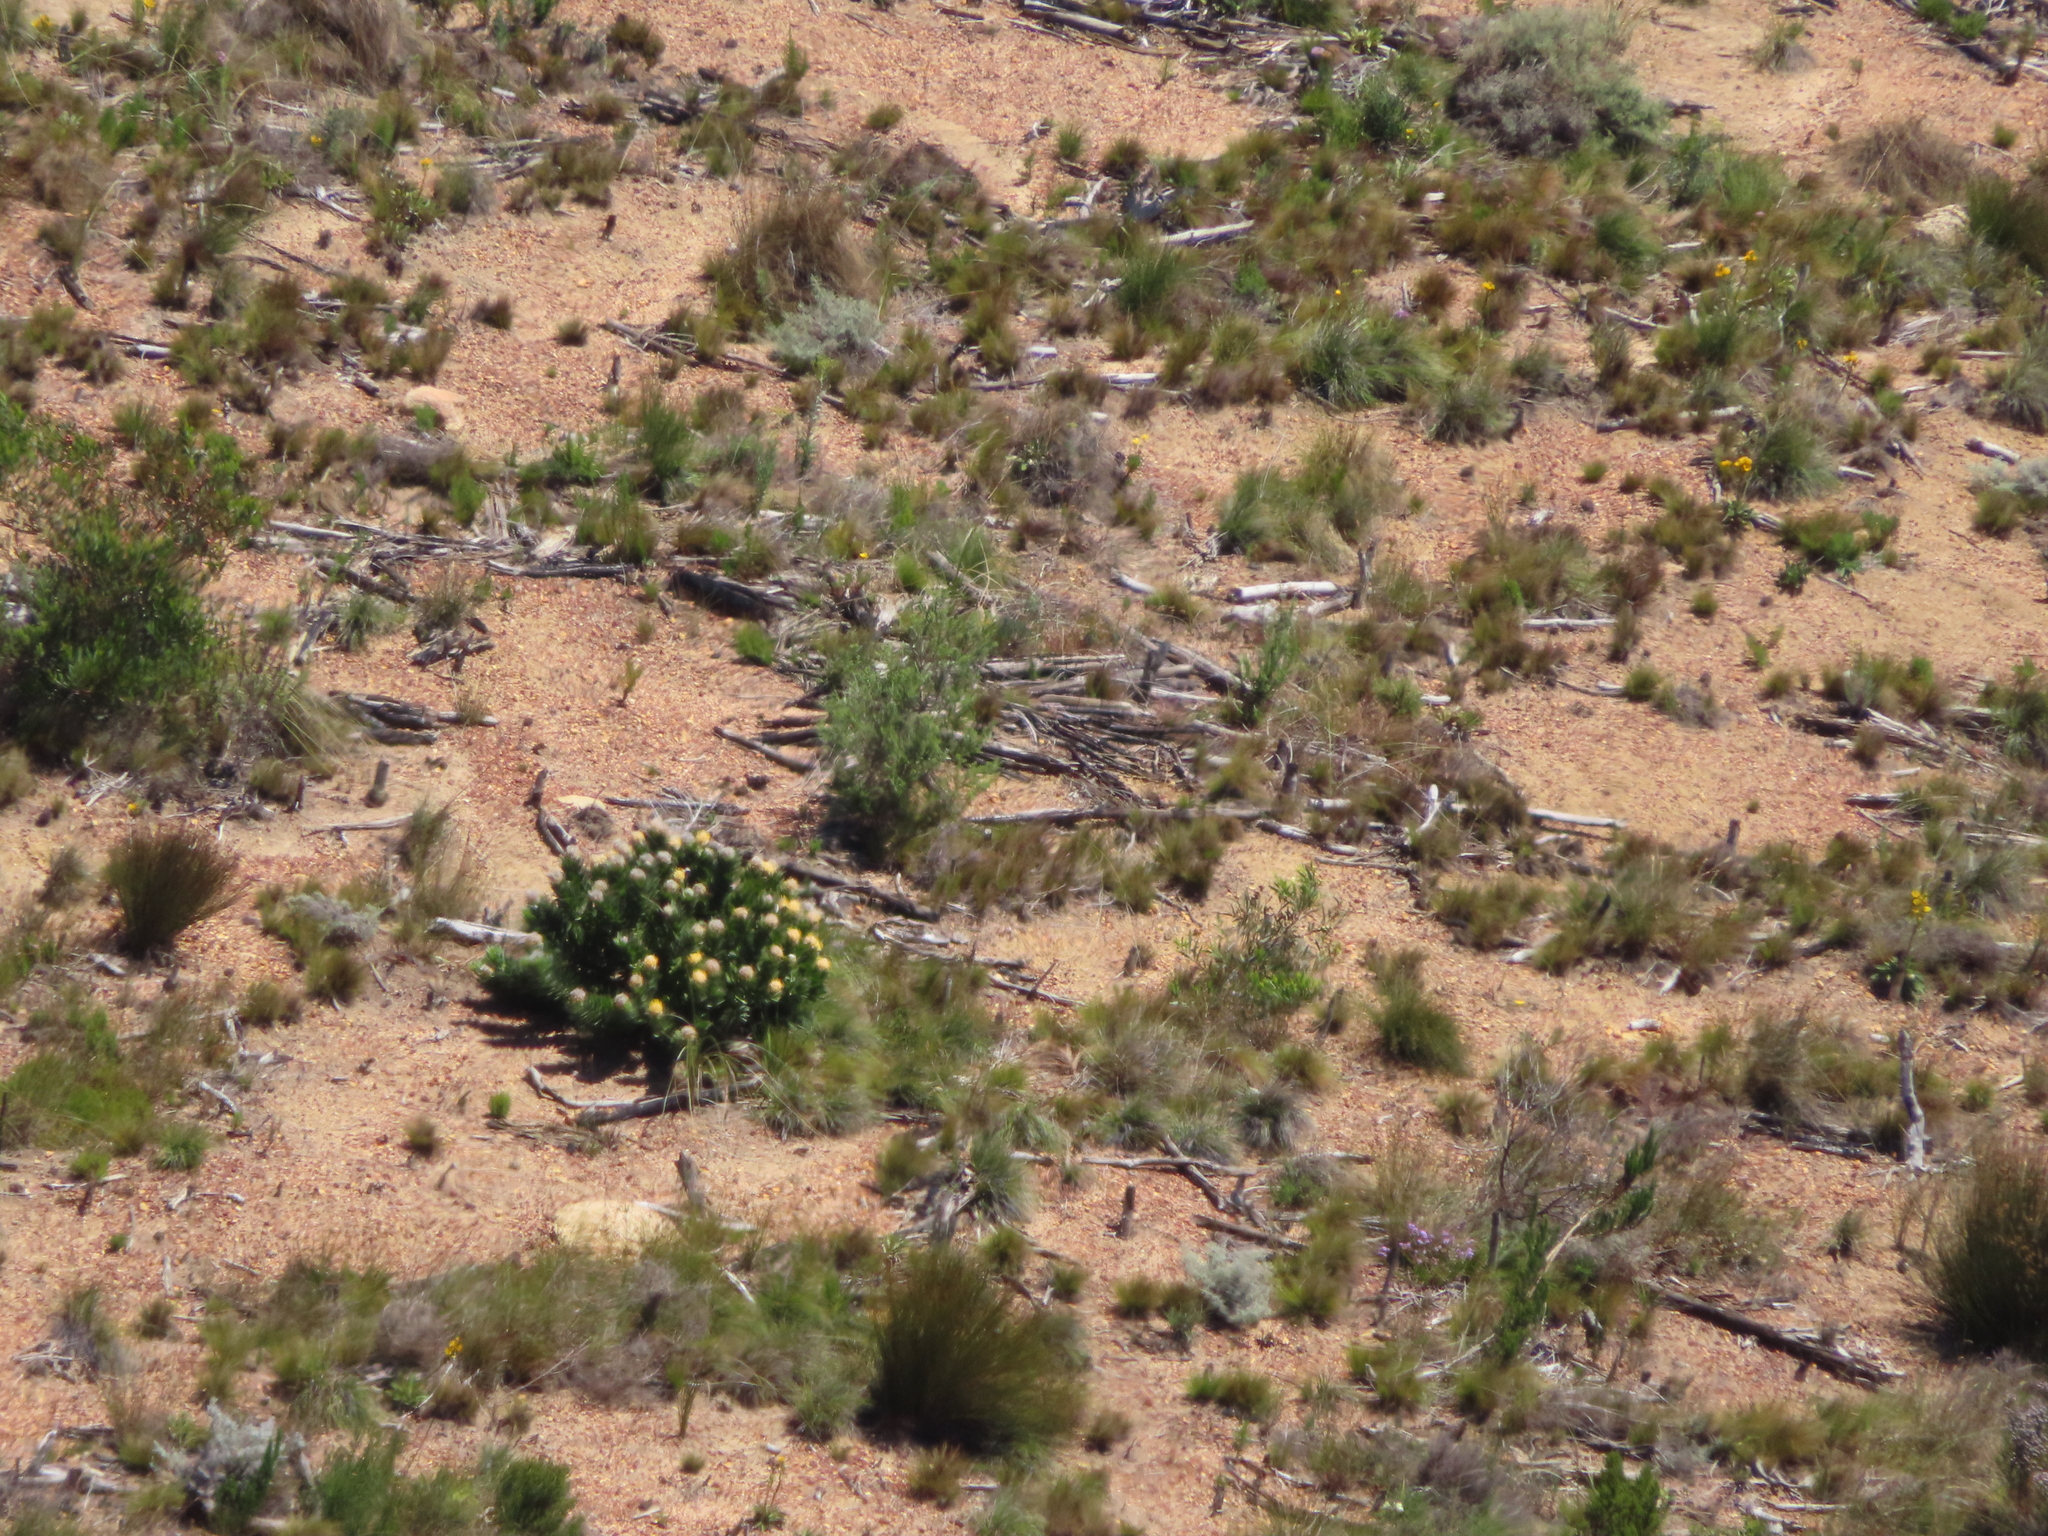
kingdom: Plantae
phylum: Tracheophyta
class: Magnoliopsida
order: Proteales
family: Proteaceae
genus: Leucospermum
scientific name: Leucospermum conocarpodendron
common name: Tree pincushion
